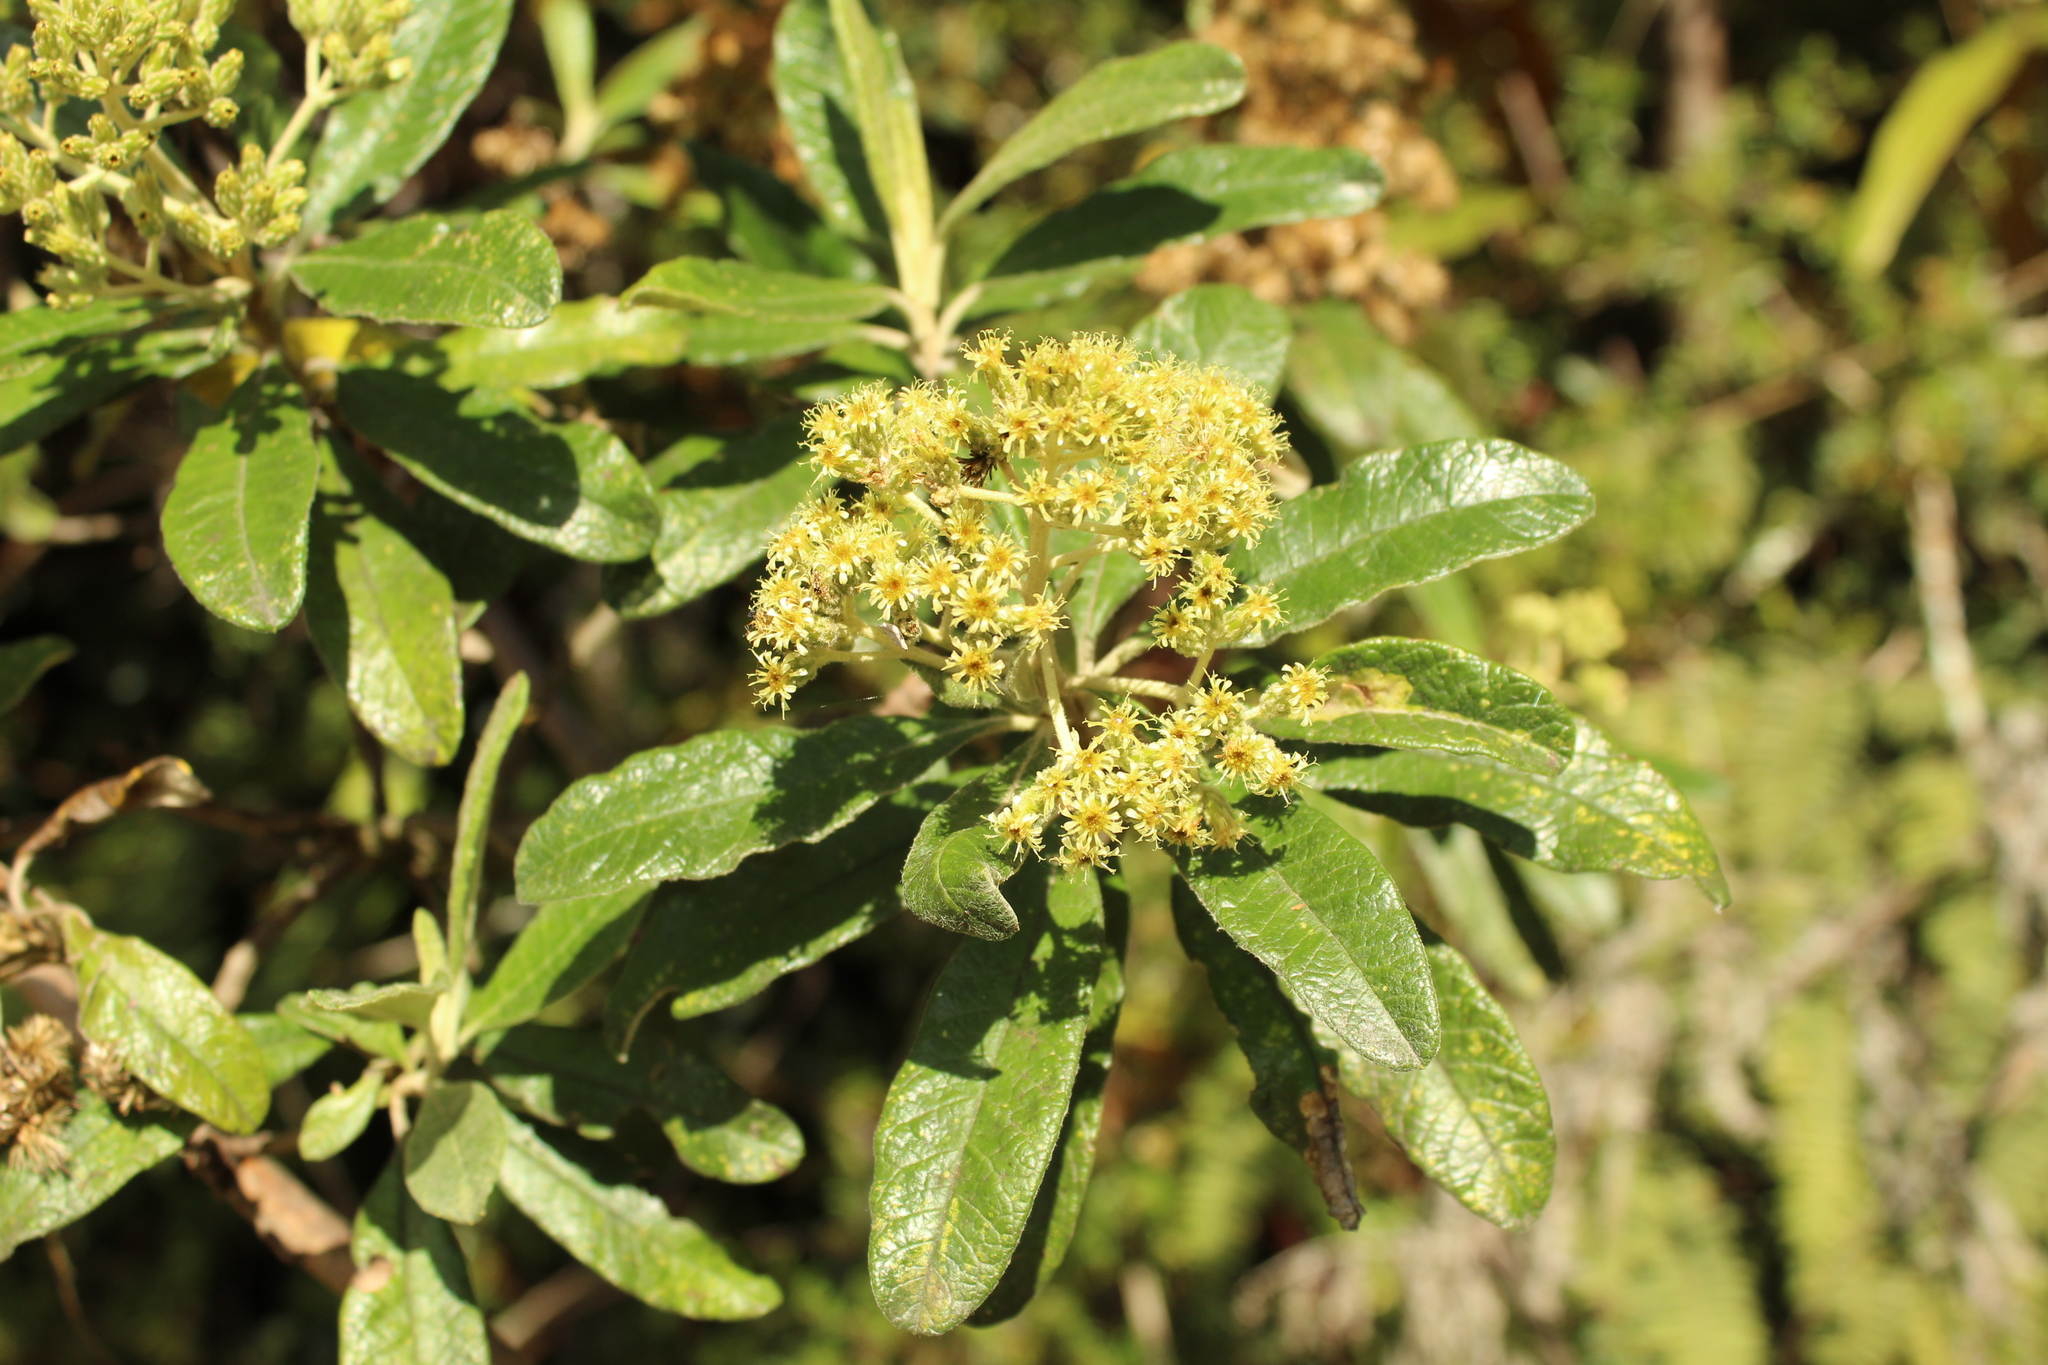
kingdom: Plantae
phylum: Tracheophyta
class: Magnoliopsida
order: Asterales
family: Asteraceae
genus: Linochilus
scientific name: Linochilus tenuifolius
